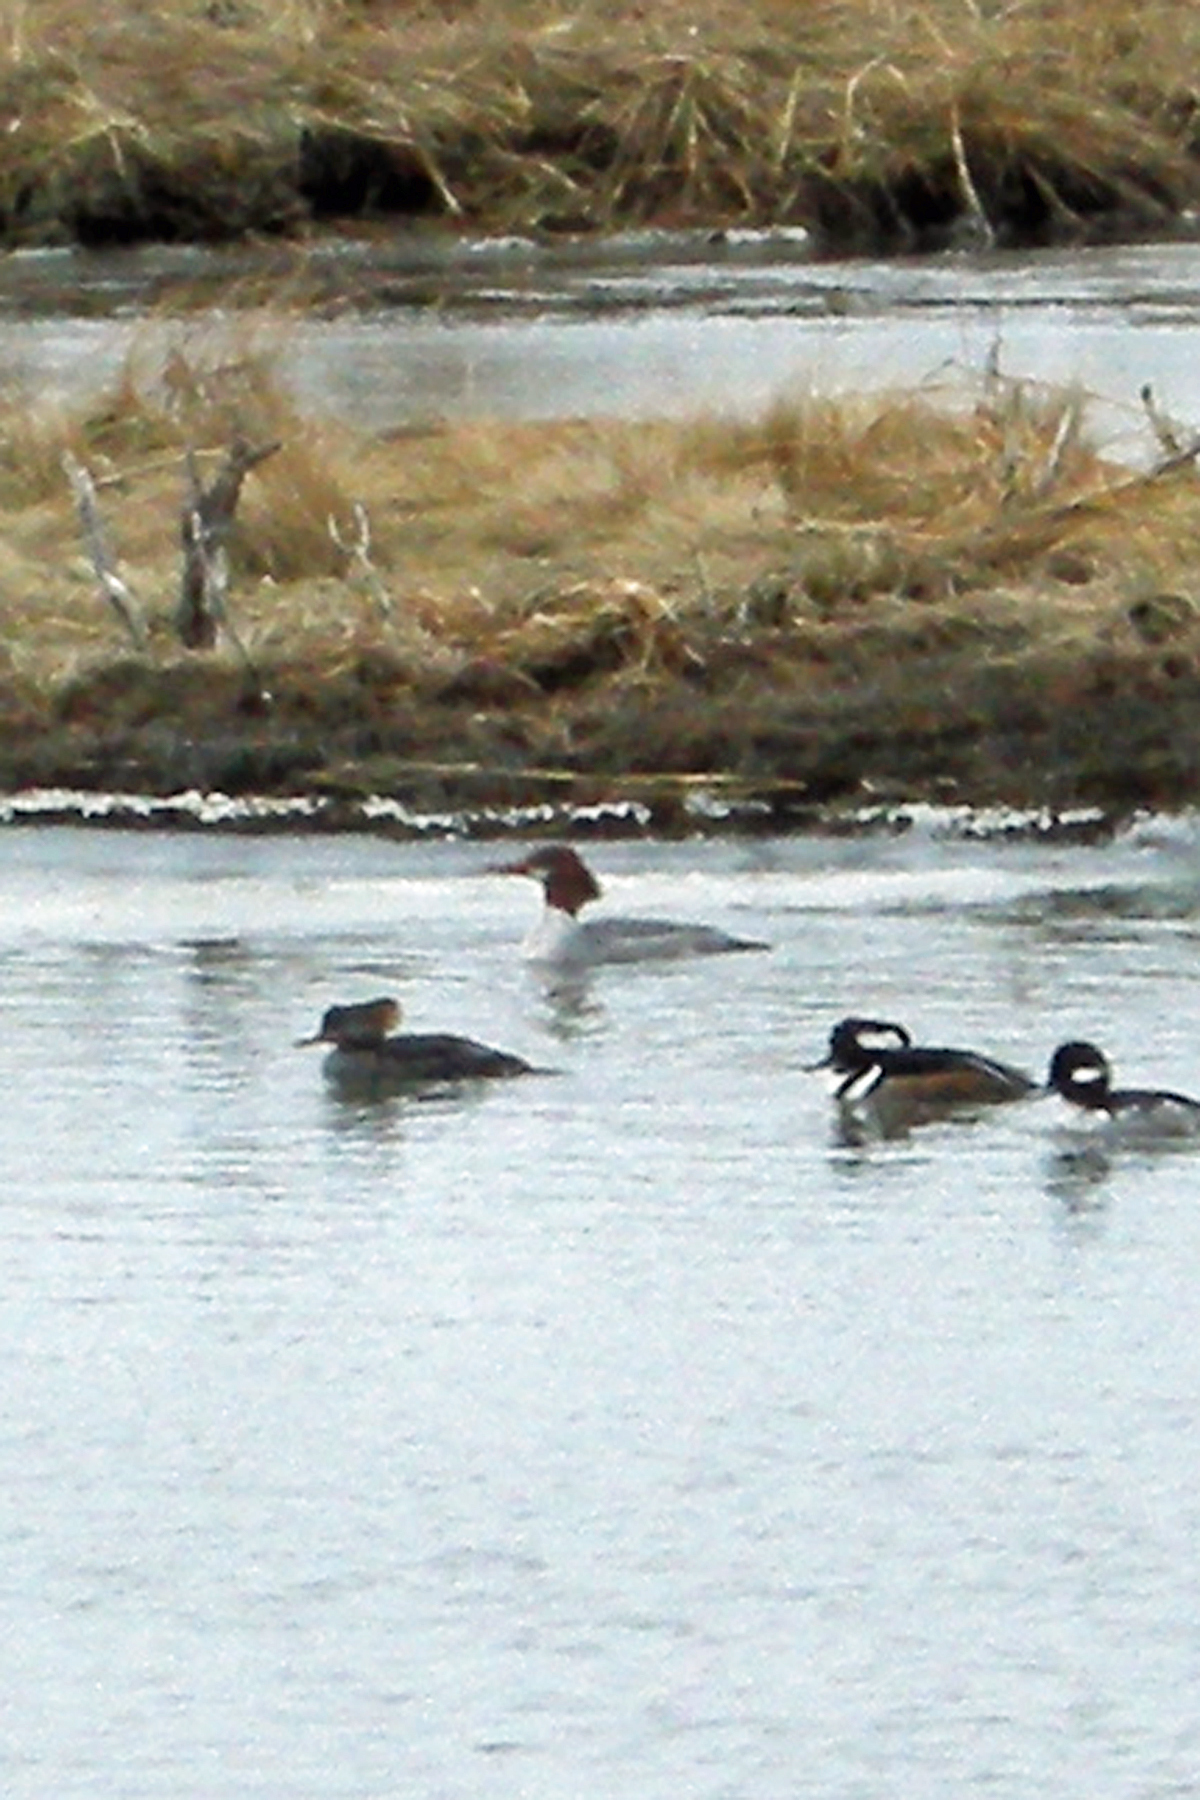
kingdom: Animalia
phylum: Chordata
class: Aves
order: Anseriformes
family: Anatidae
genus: Mergus
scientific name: Mergus merganser
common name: Common merganser
